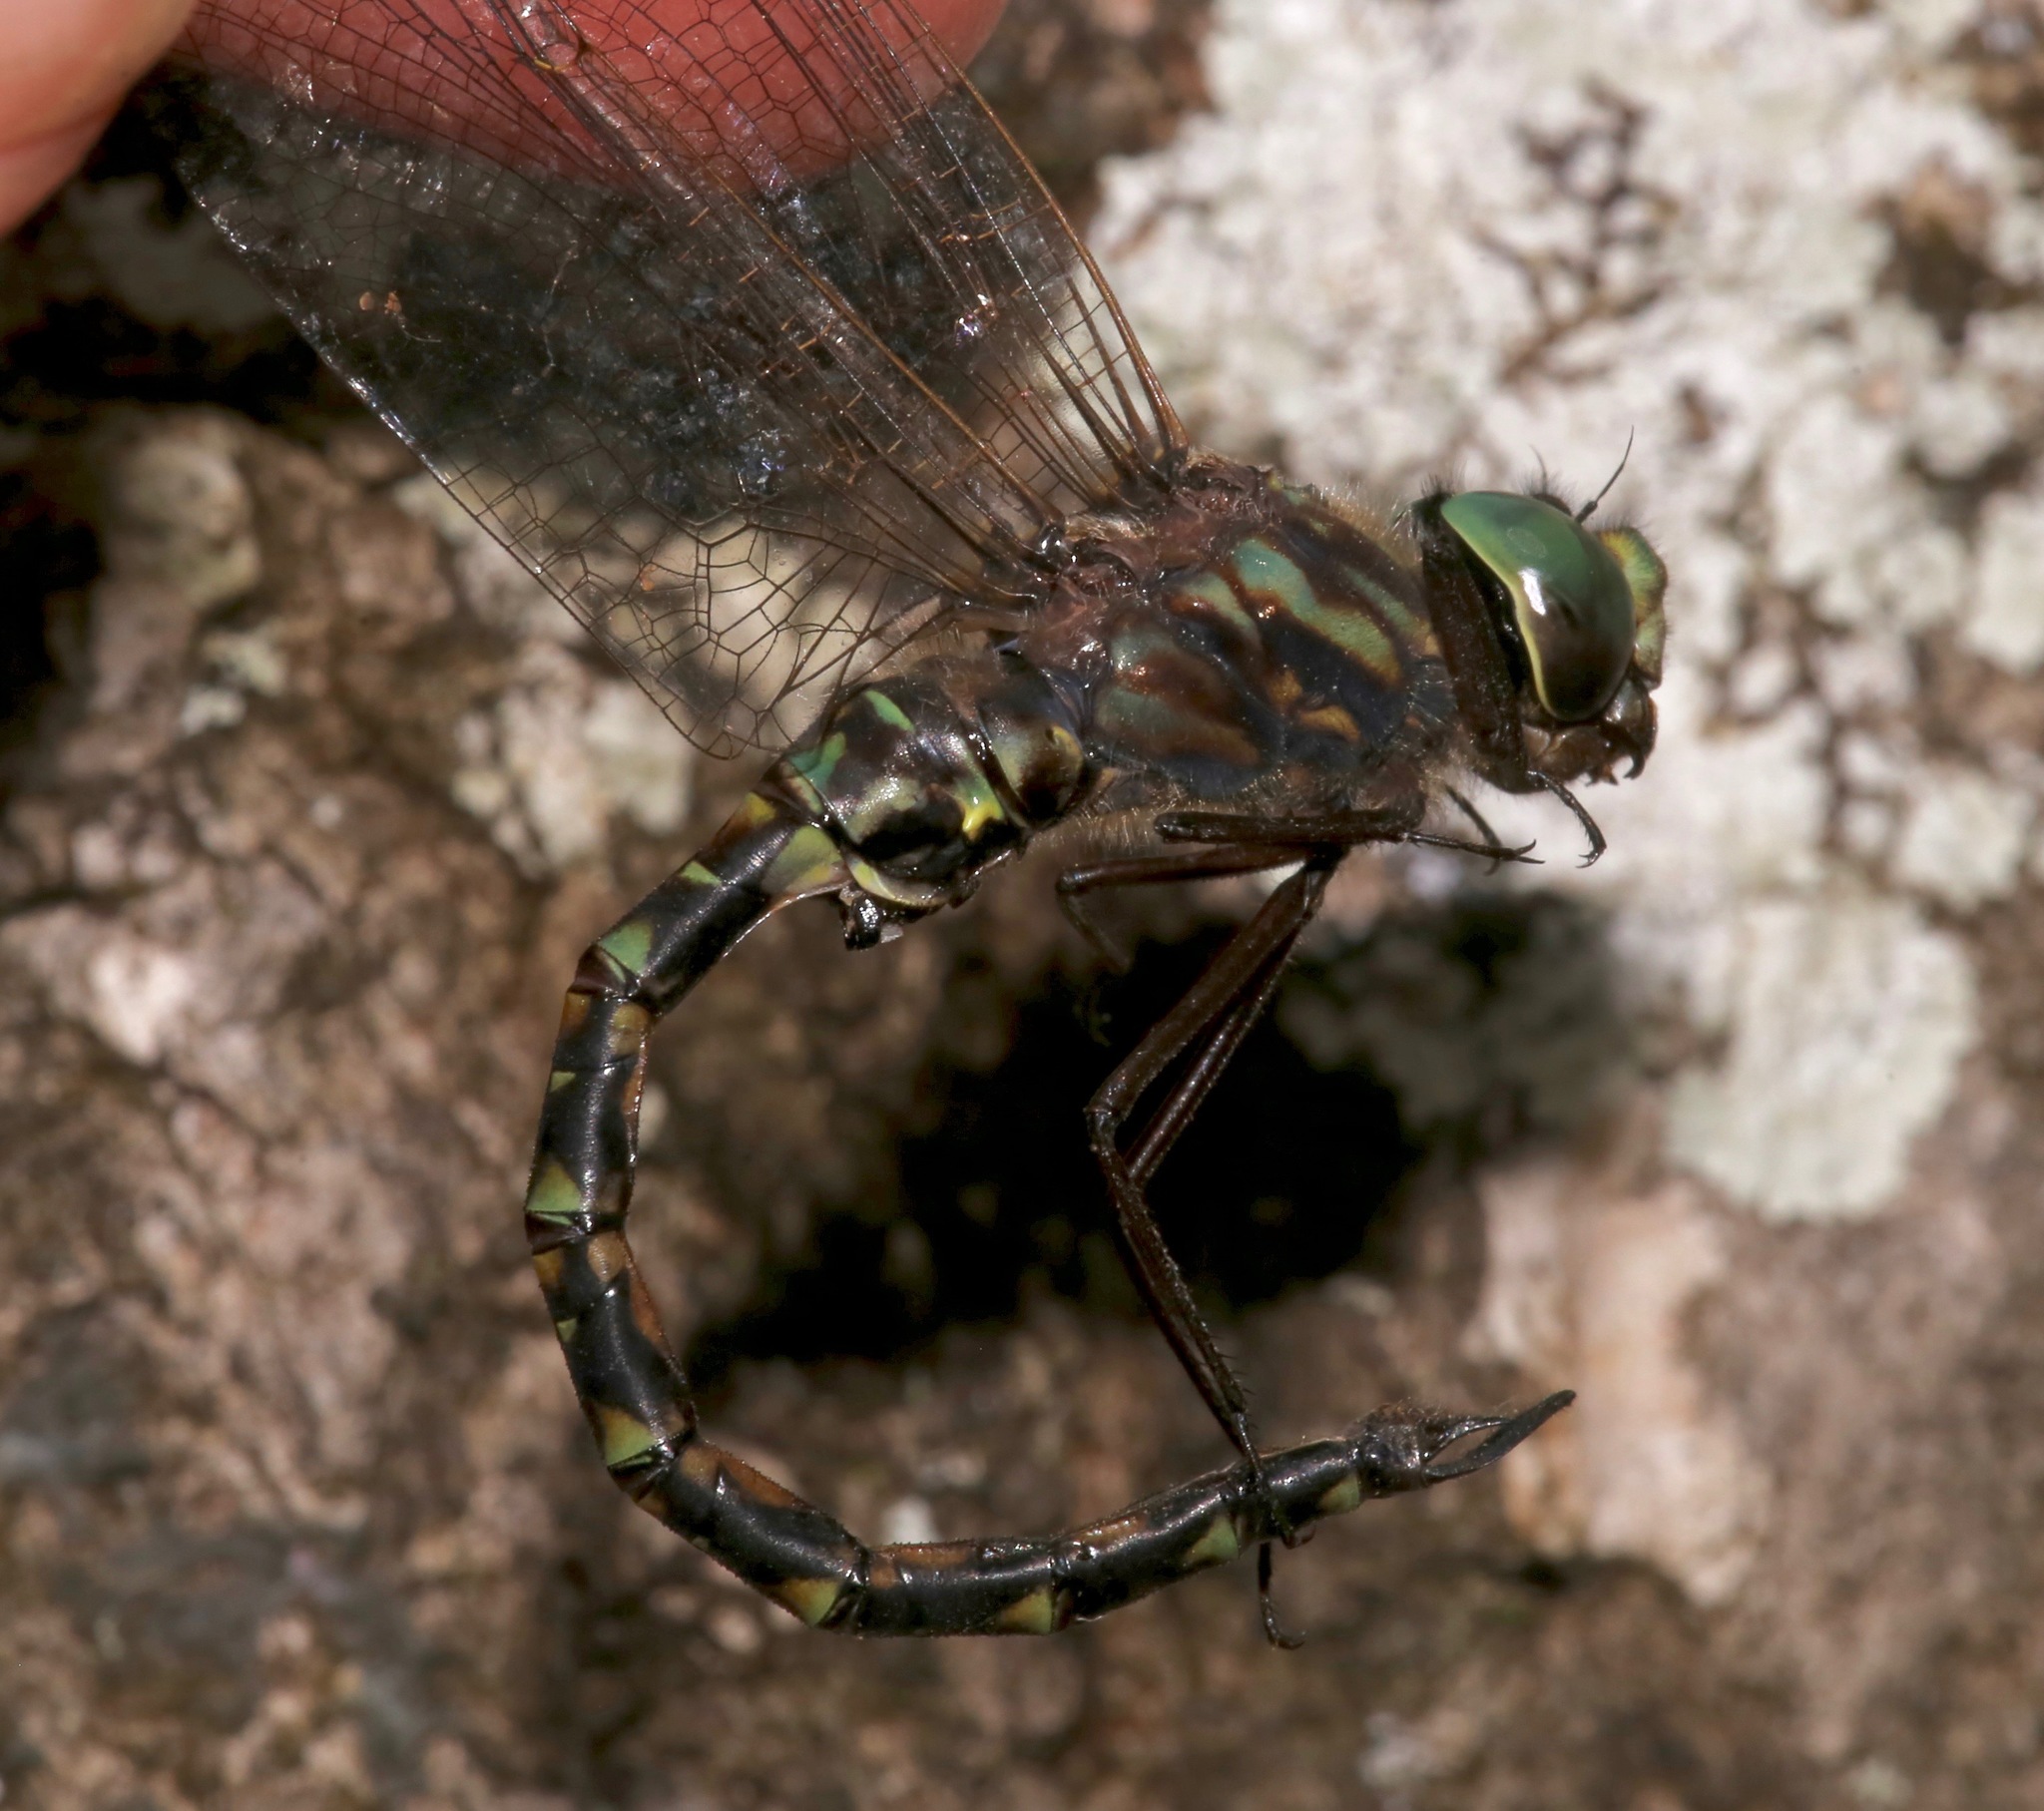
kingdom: Animalia
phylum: Arthropoda
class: Insecta
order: Odonata
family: Aeshnidae
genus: Gomphaeschna
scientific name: Gomphaeschna furcillata
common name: Harlequin darner
